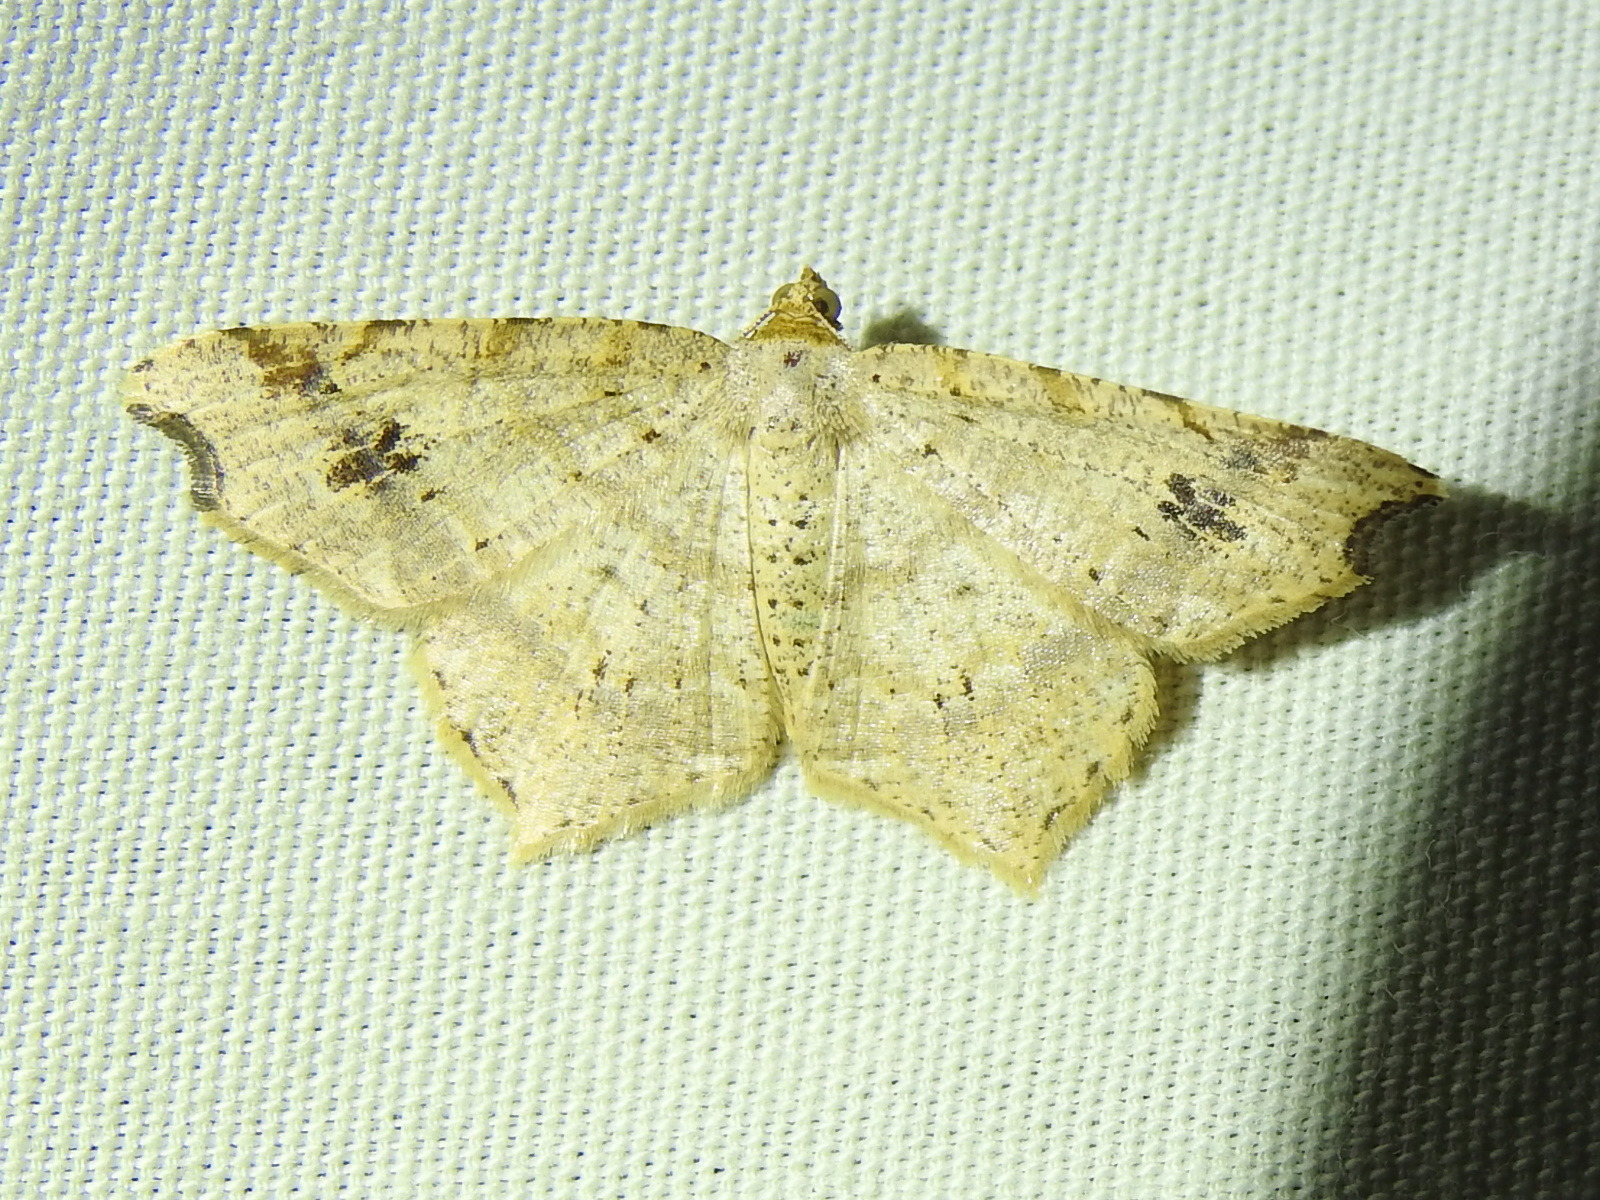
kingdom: Animalia
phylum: Arthropoda
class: Insecta
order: Lepidoptera
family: Geometridae
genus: Macaria
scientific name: Macaria aemulataria
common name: Common angle
